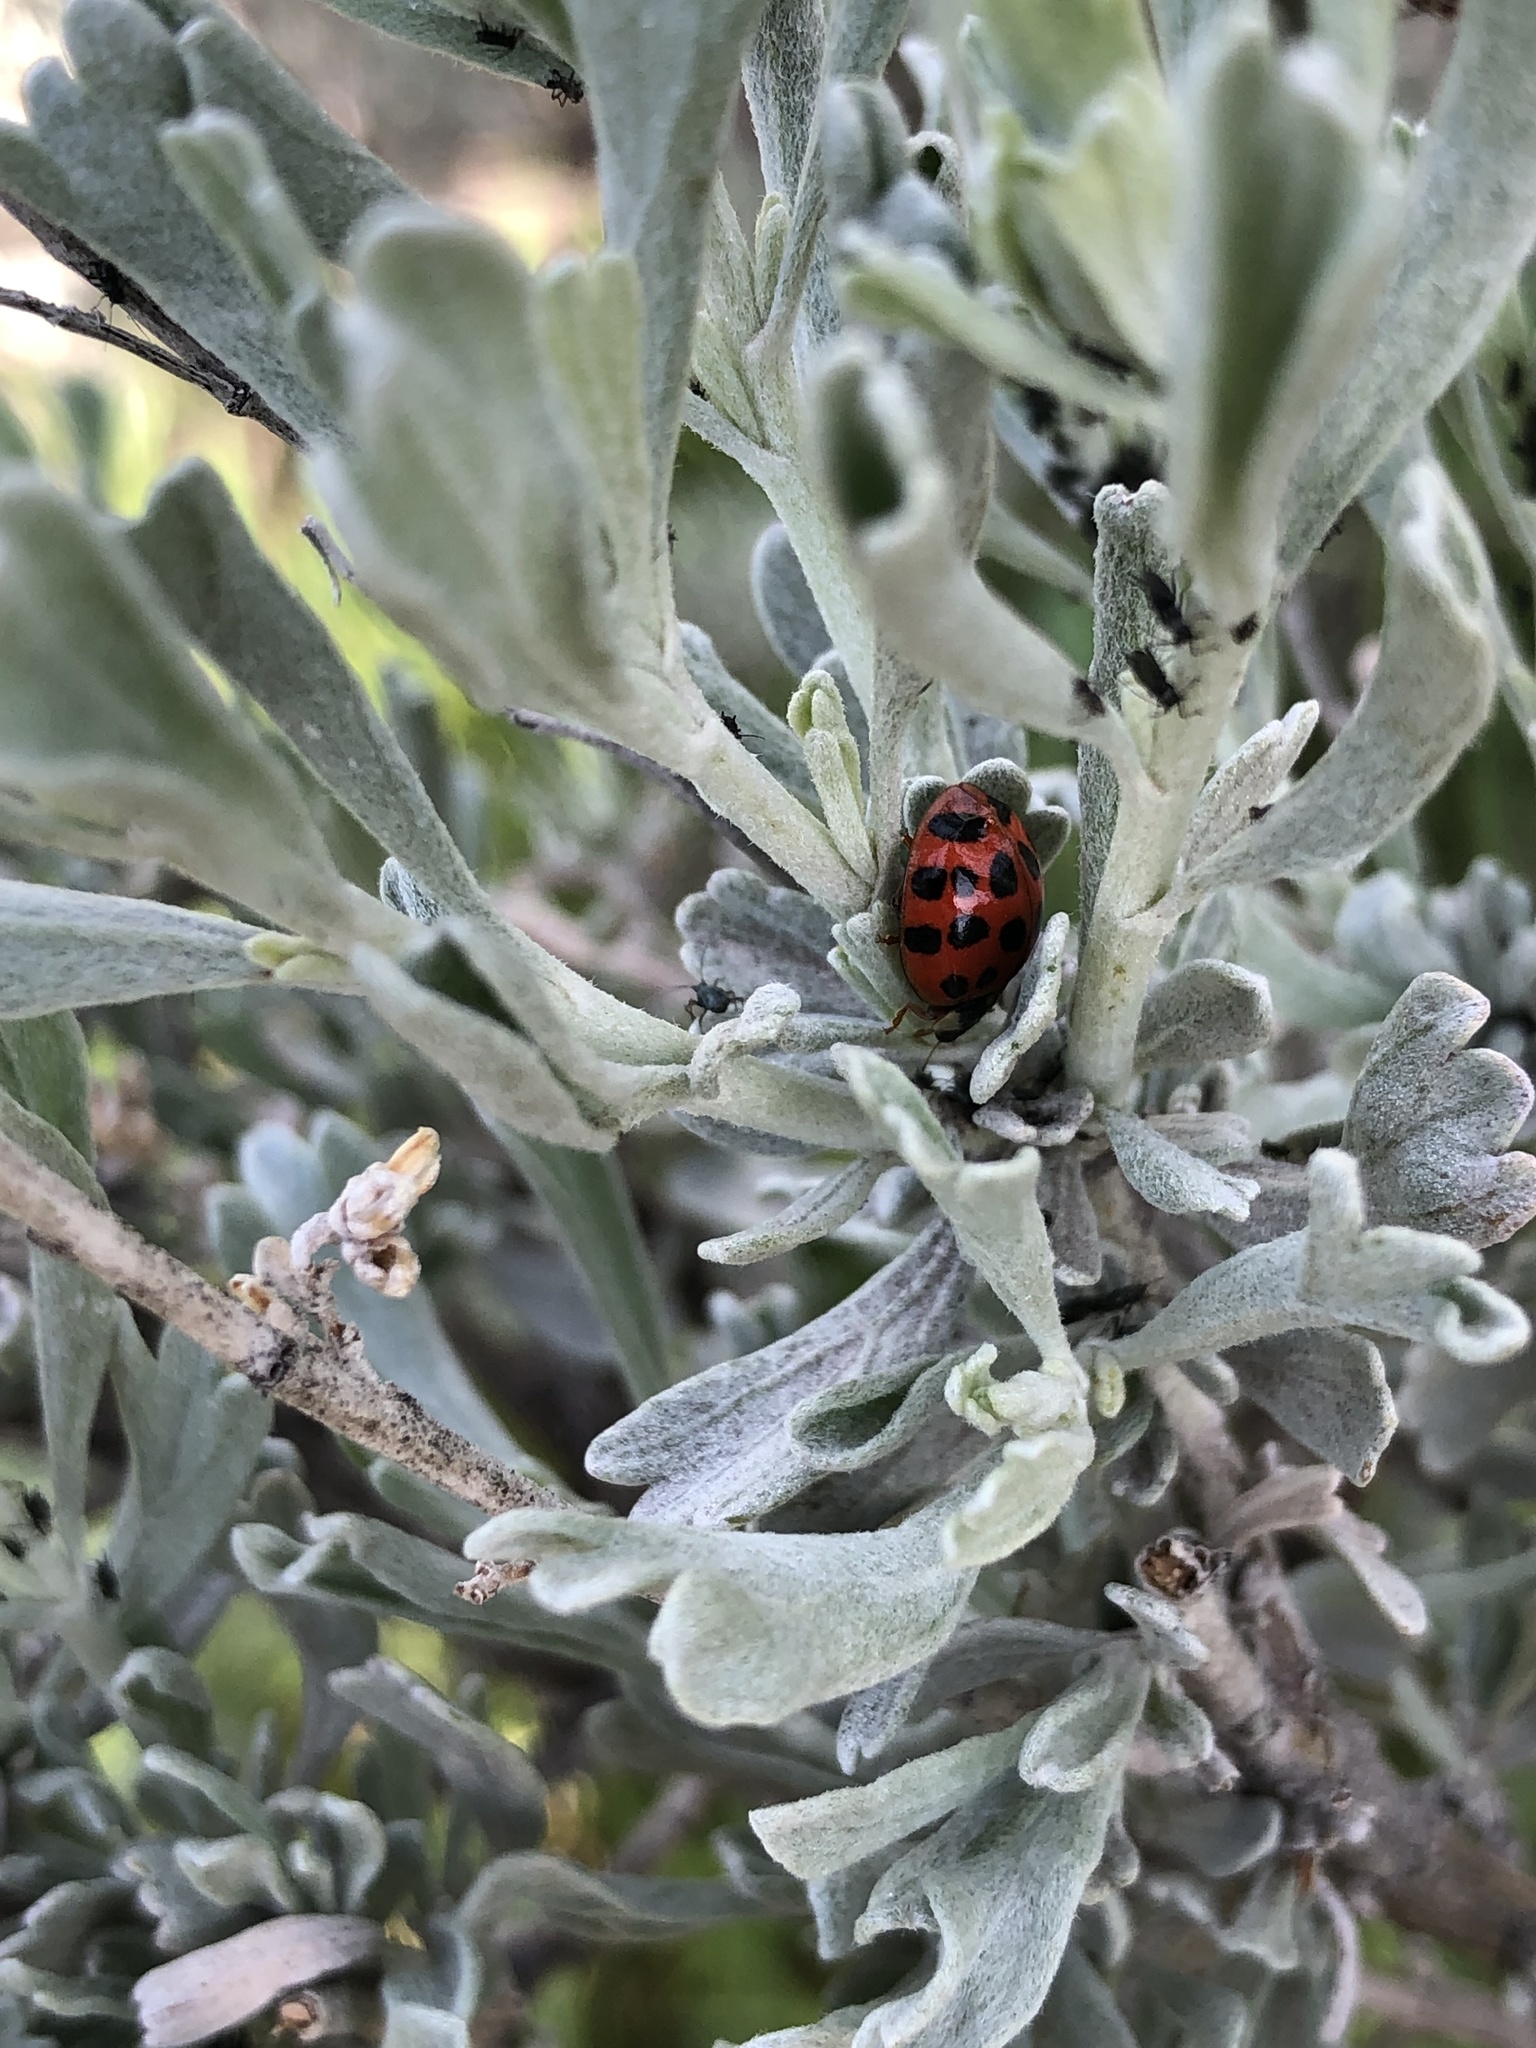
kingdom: Animalia
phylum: Arthropoda
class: Insecta
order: Coleoptera
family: Coccinellidae
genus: Harmonia
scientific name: Harmonia axyridis
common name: Harlequin ladybird
